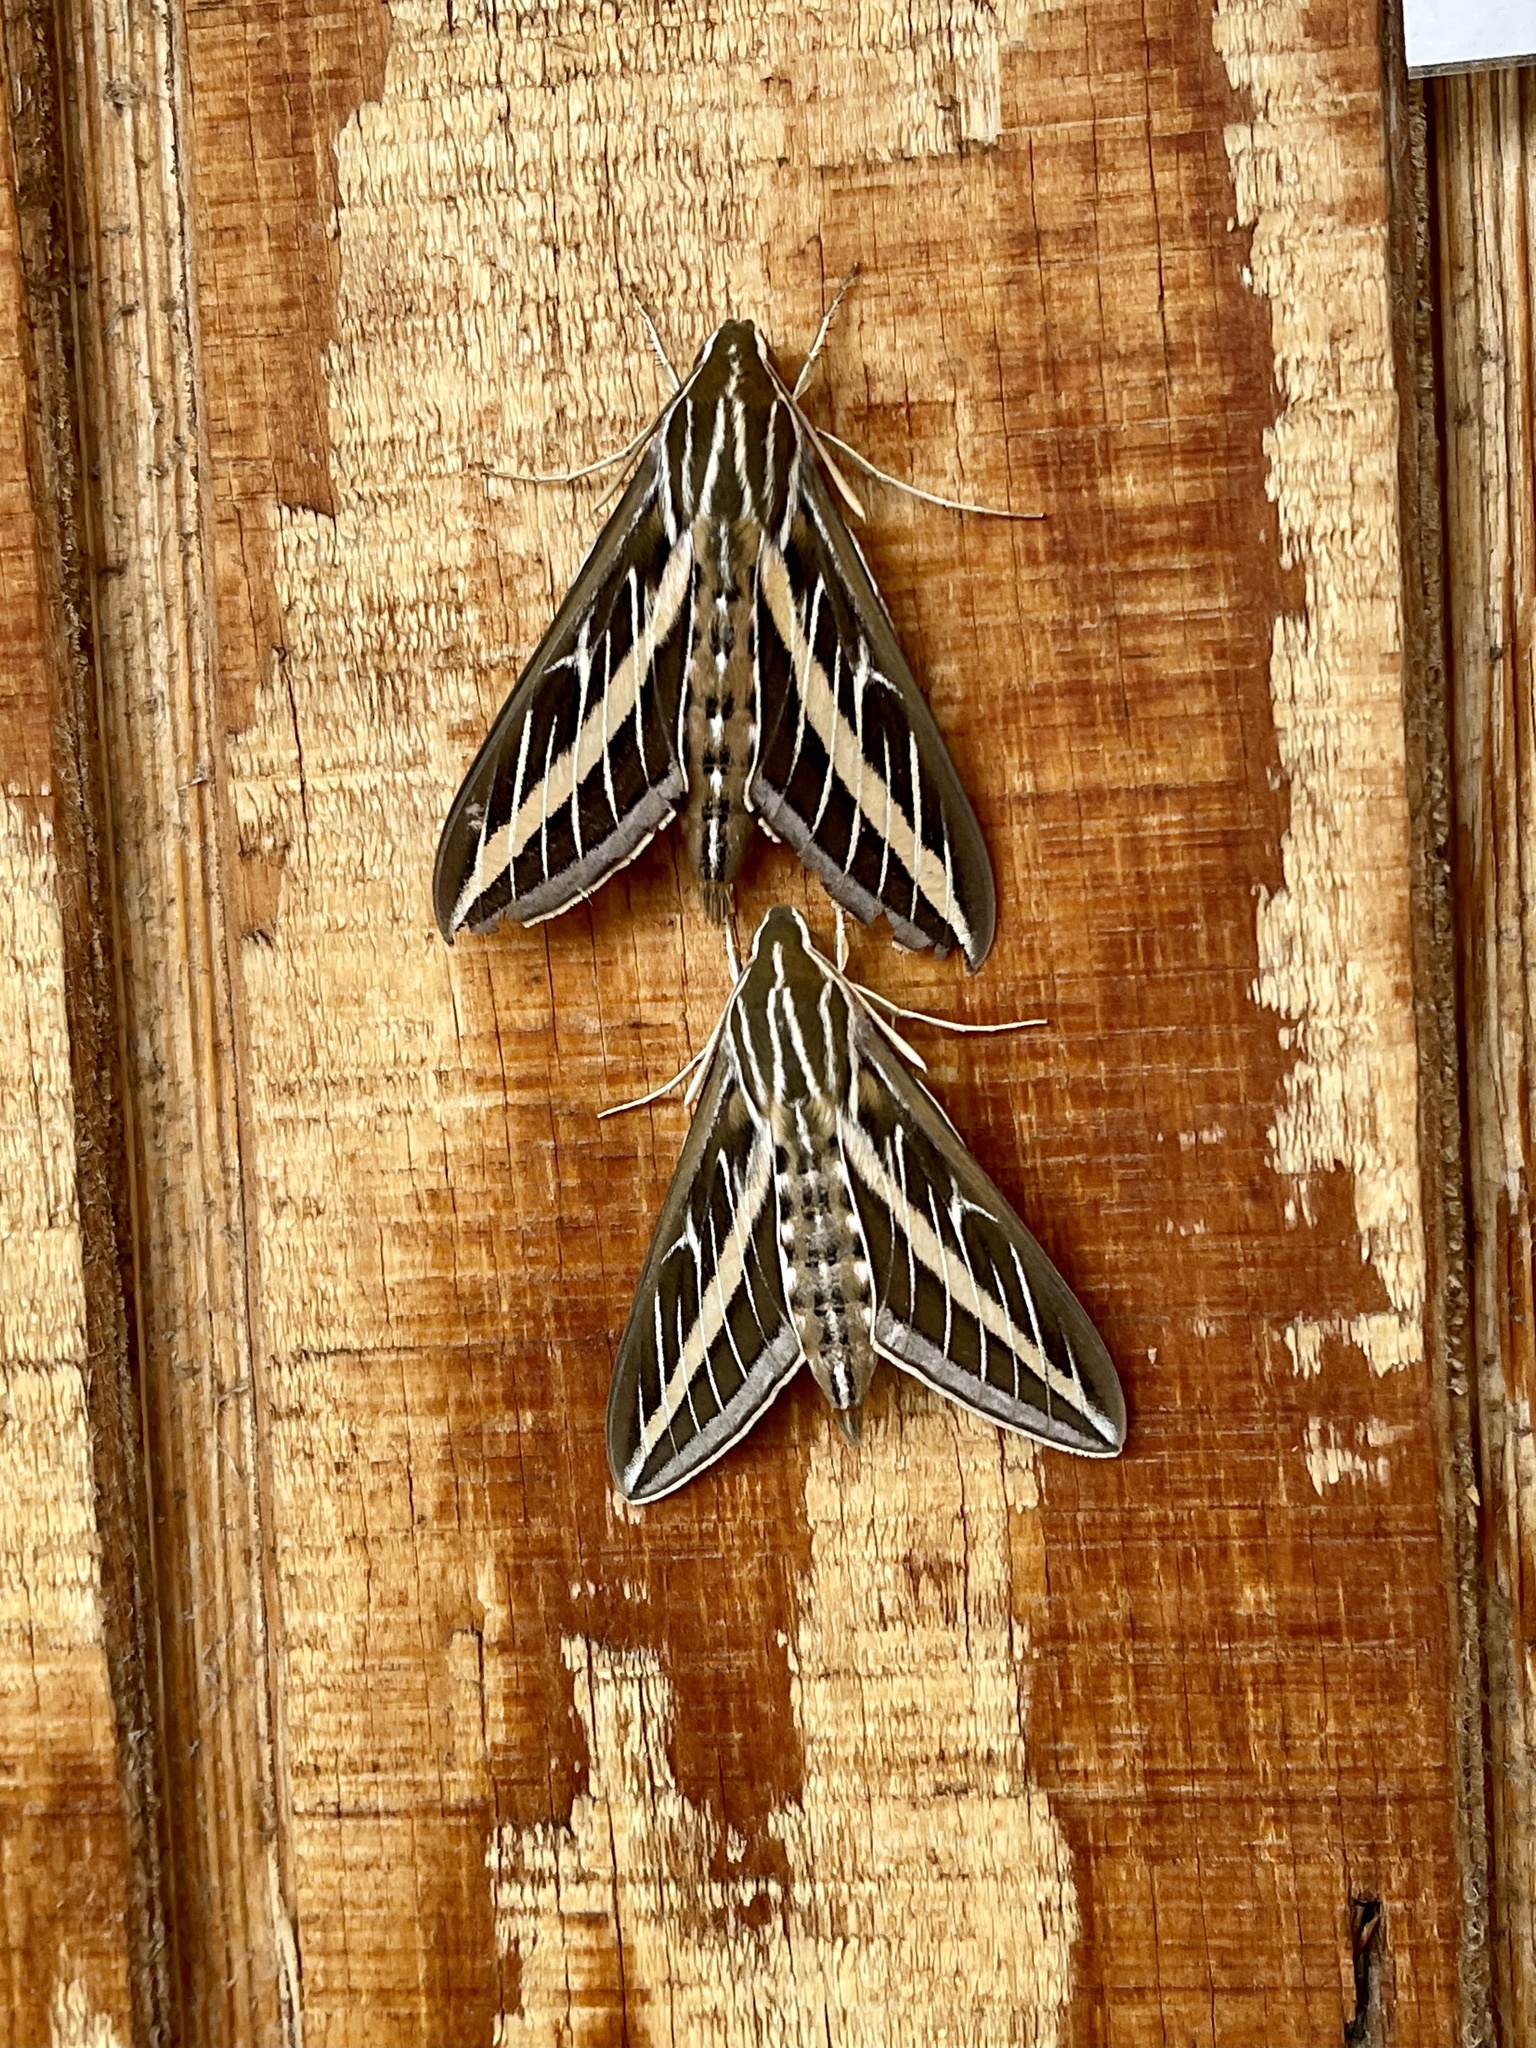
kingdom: Animalia
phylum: Arthropoda
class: Insecta
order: Lepidoptera
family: Sphingidae
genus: Hyles
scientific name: Hyles lineata
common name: White-lined sphinx
